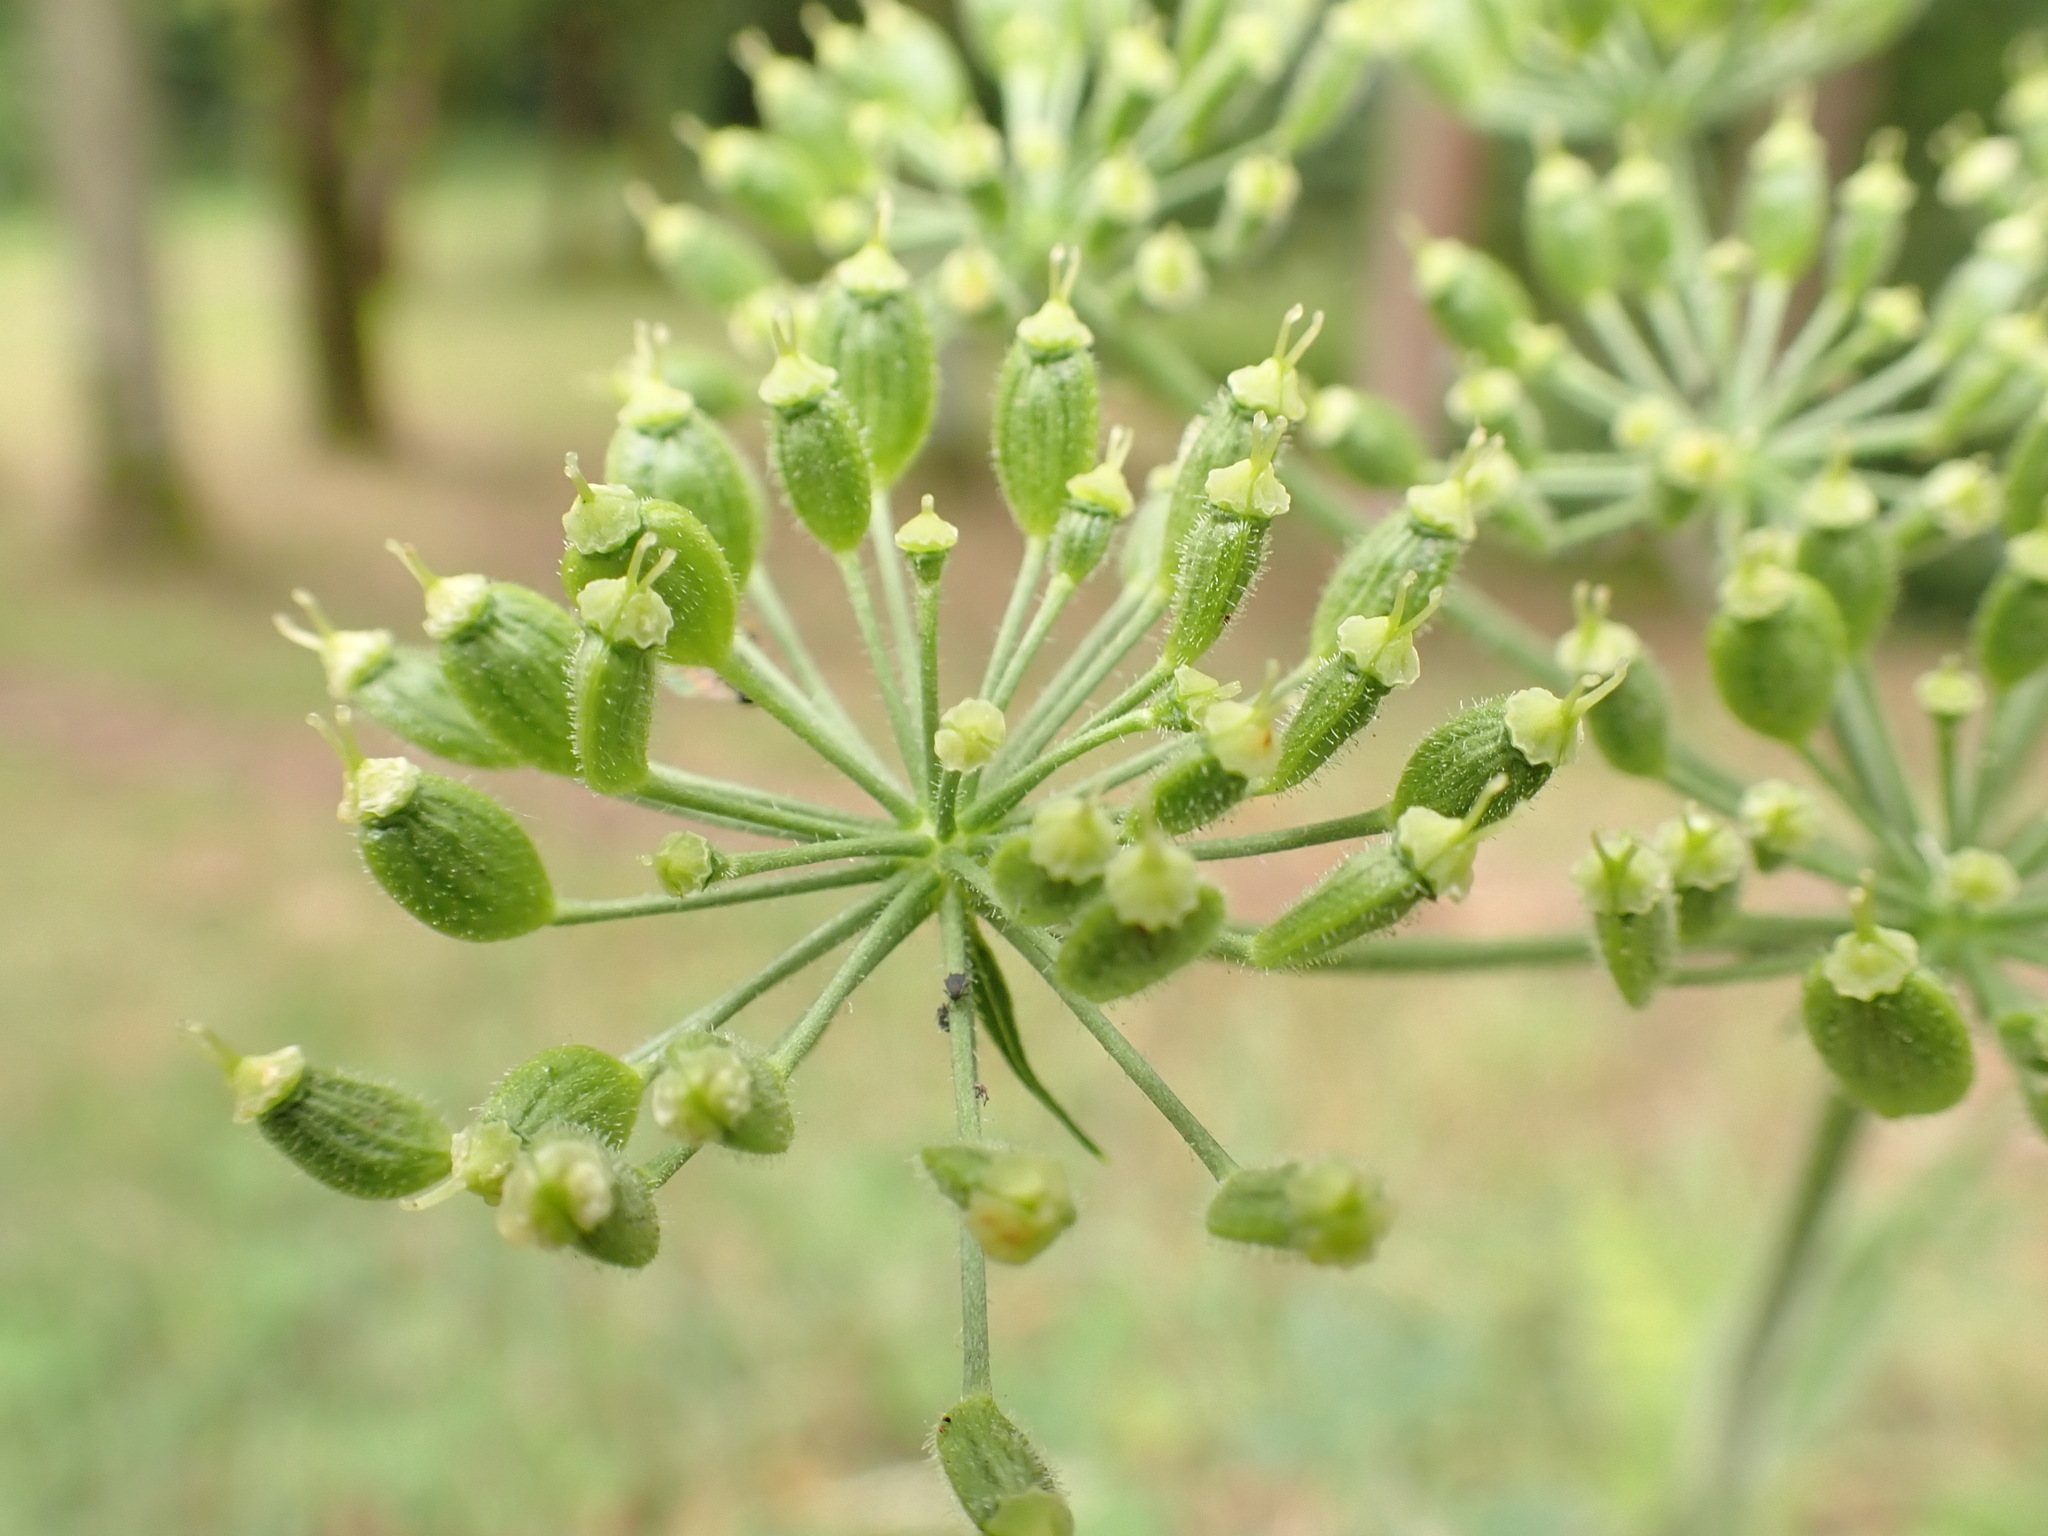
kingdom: Plantae
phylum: Tracheophyta
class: Magnoliopsida
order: Apiales
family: Apiaceae
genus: Heracleum
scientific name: Heracleum sphondylium
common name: Hogweed
